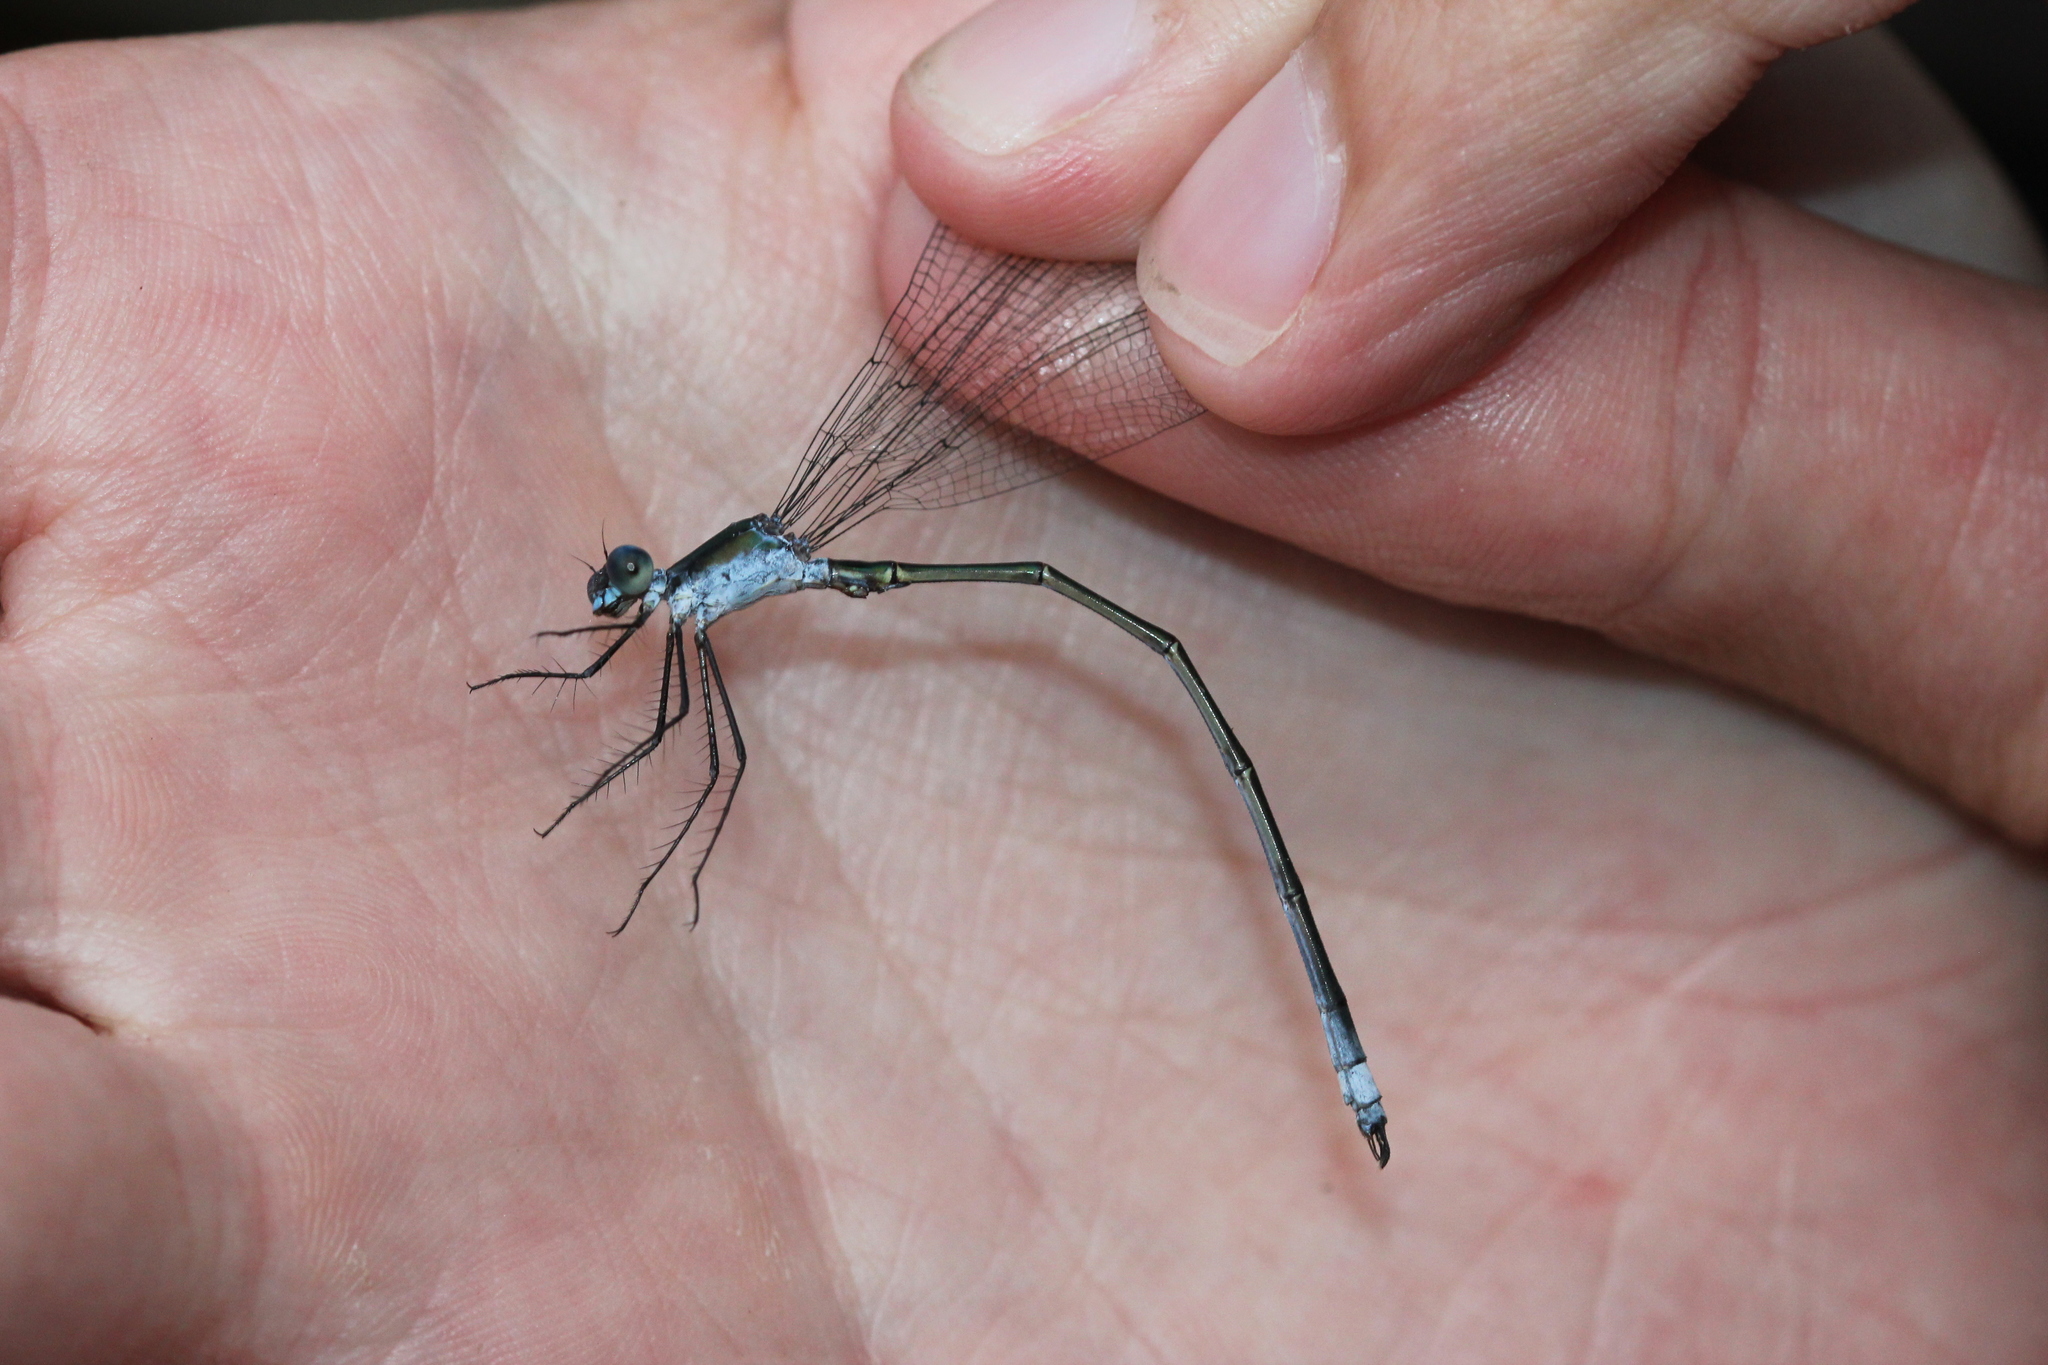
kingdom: Animalia
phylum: Arthropoda
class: Insecta
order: Odonata
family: Lestidae
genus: Lestes
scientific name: Lestes vigilax
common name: Swamp spreadwing
